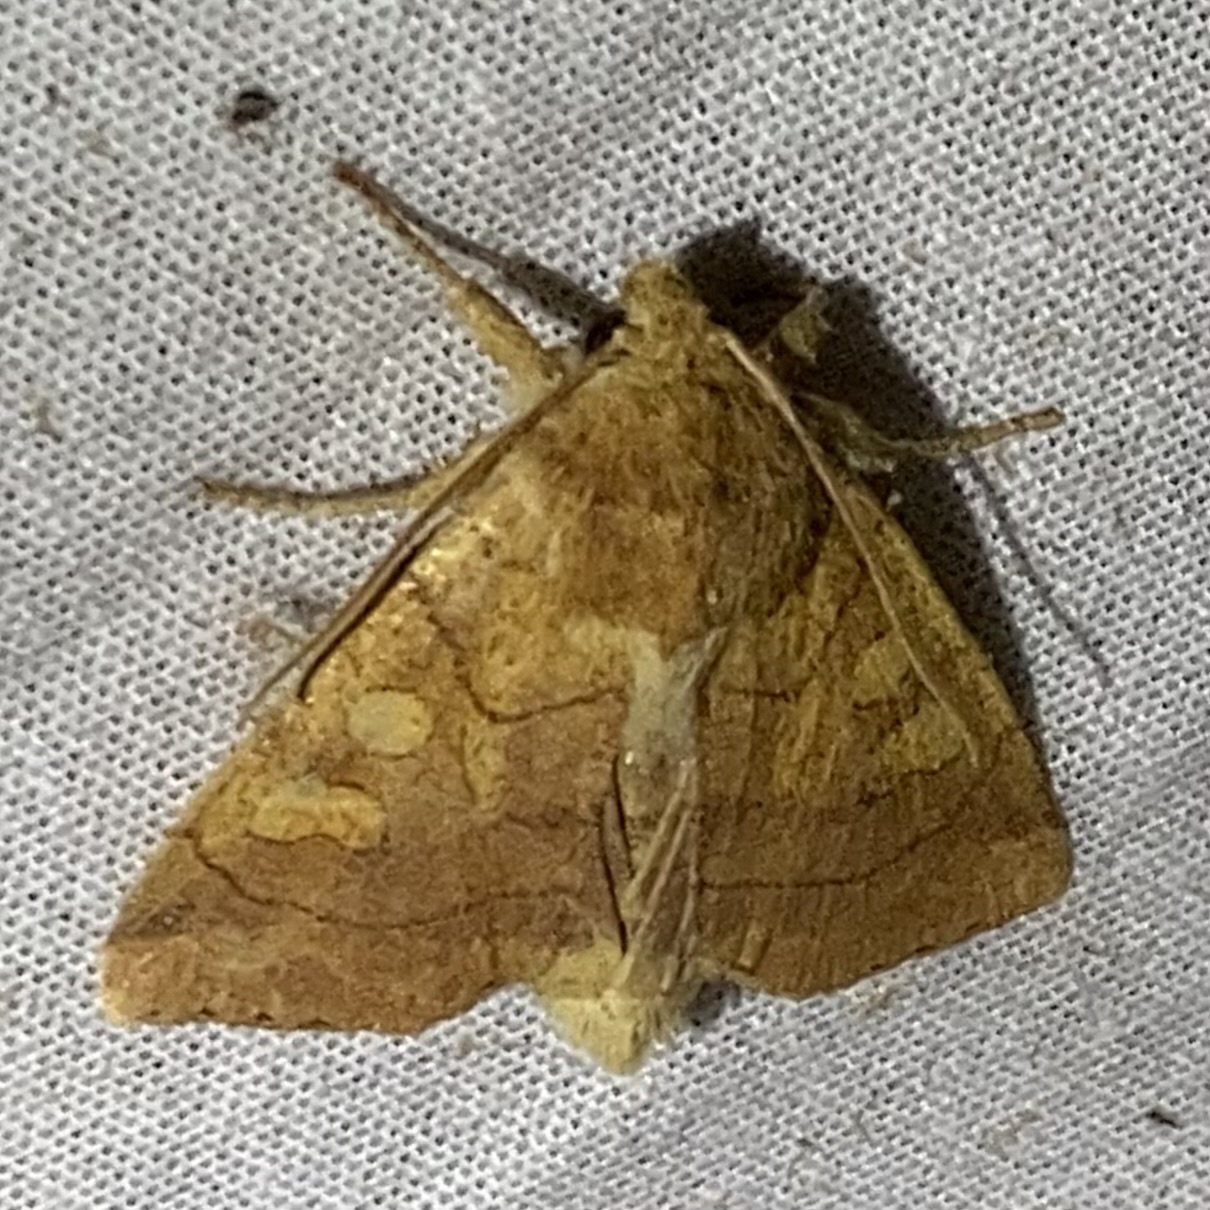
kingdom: Animalia
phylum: Arthropoda
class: Insecta
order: Lepidoptera
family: Noctuidae
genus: Enargia
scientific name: Enargia decolor
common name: Aspen twoleaf tier moth
